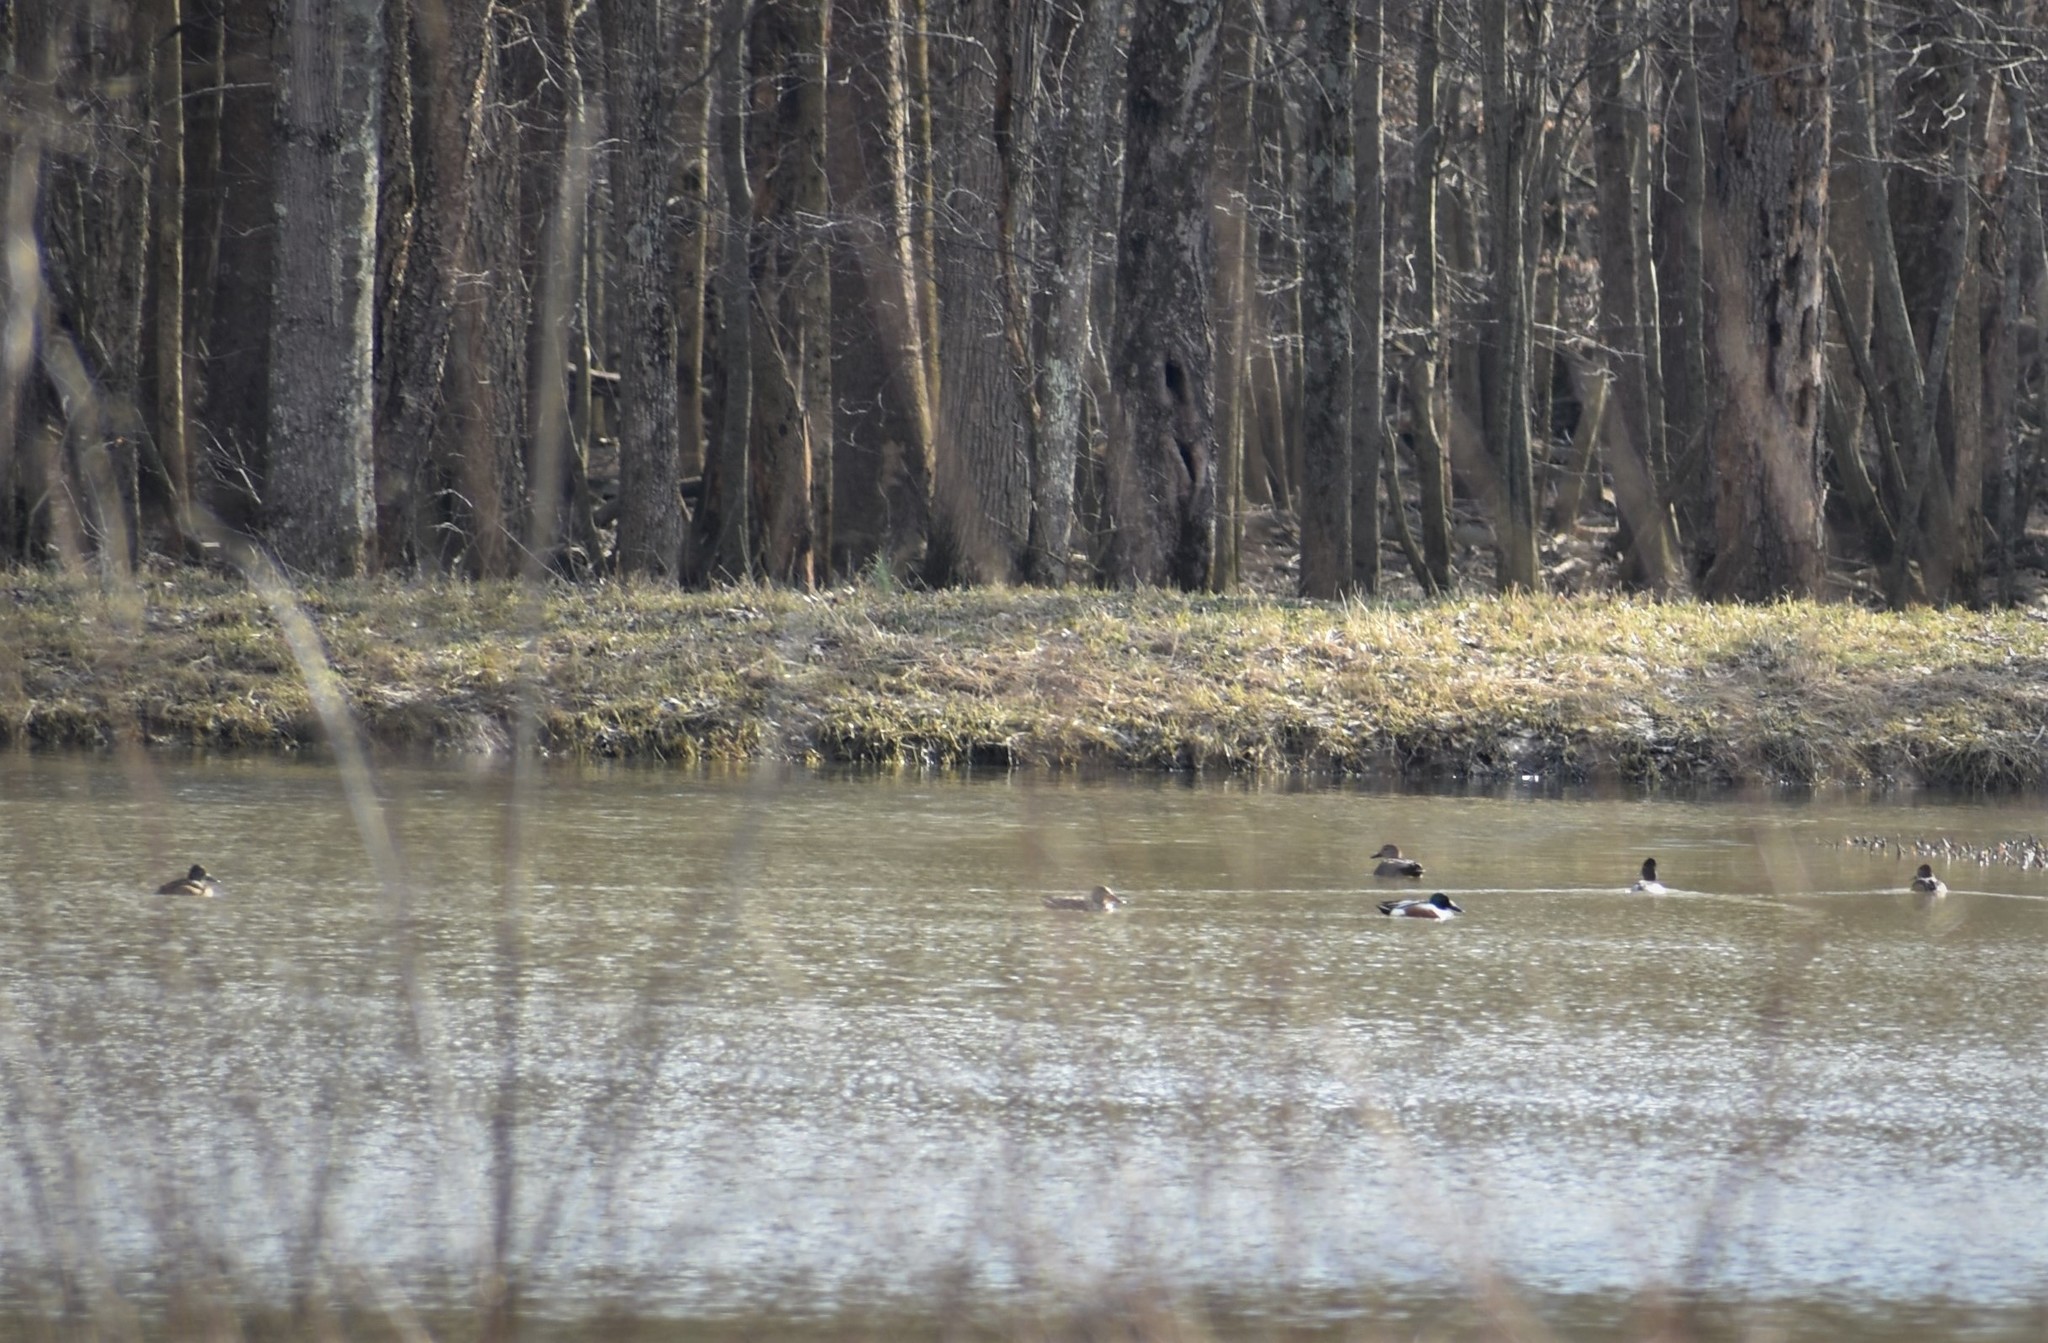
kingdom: Animalia
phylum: Chordata
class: Aves
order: Anseriformes
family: Anatidae
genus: Spatula
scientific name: Spatula clypeata
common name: Northern shoveler
